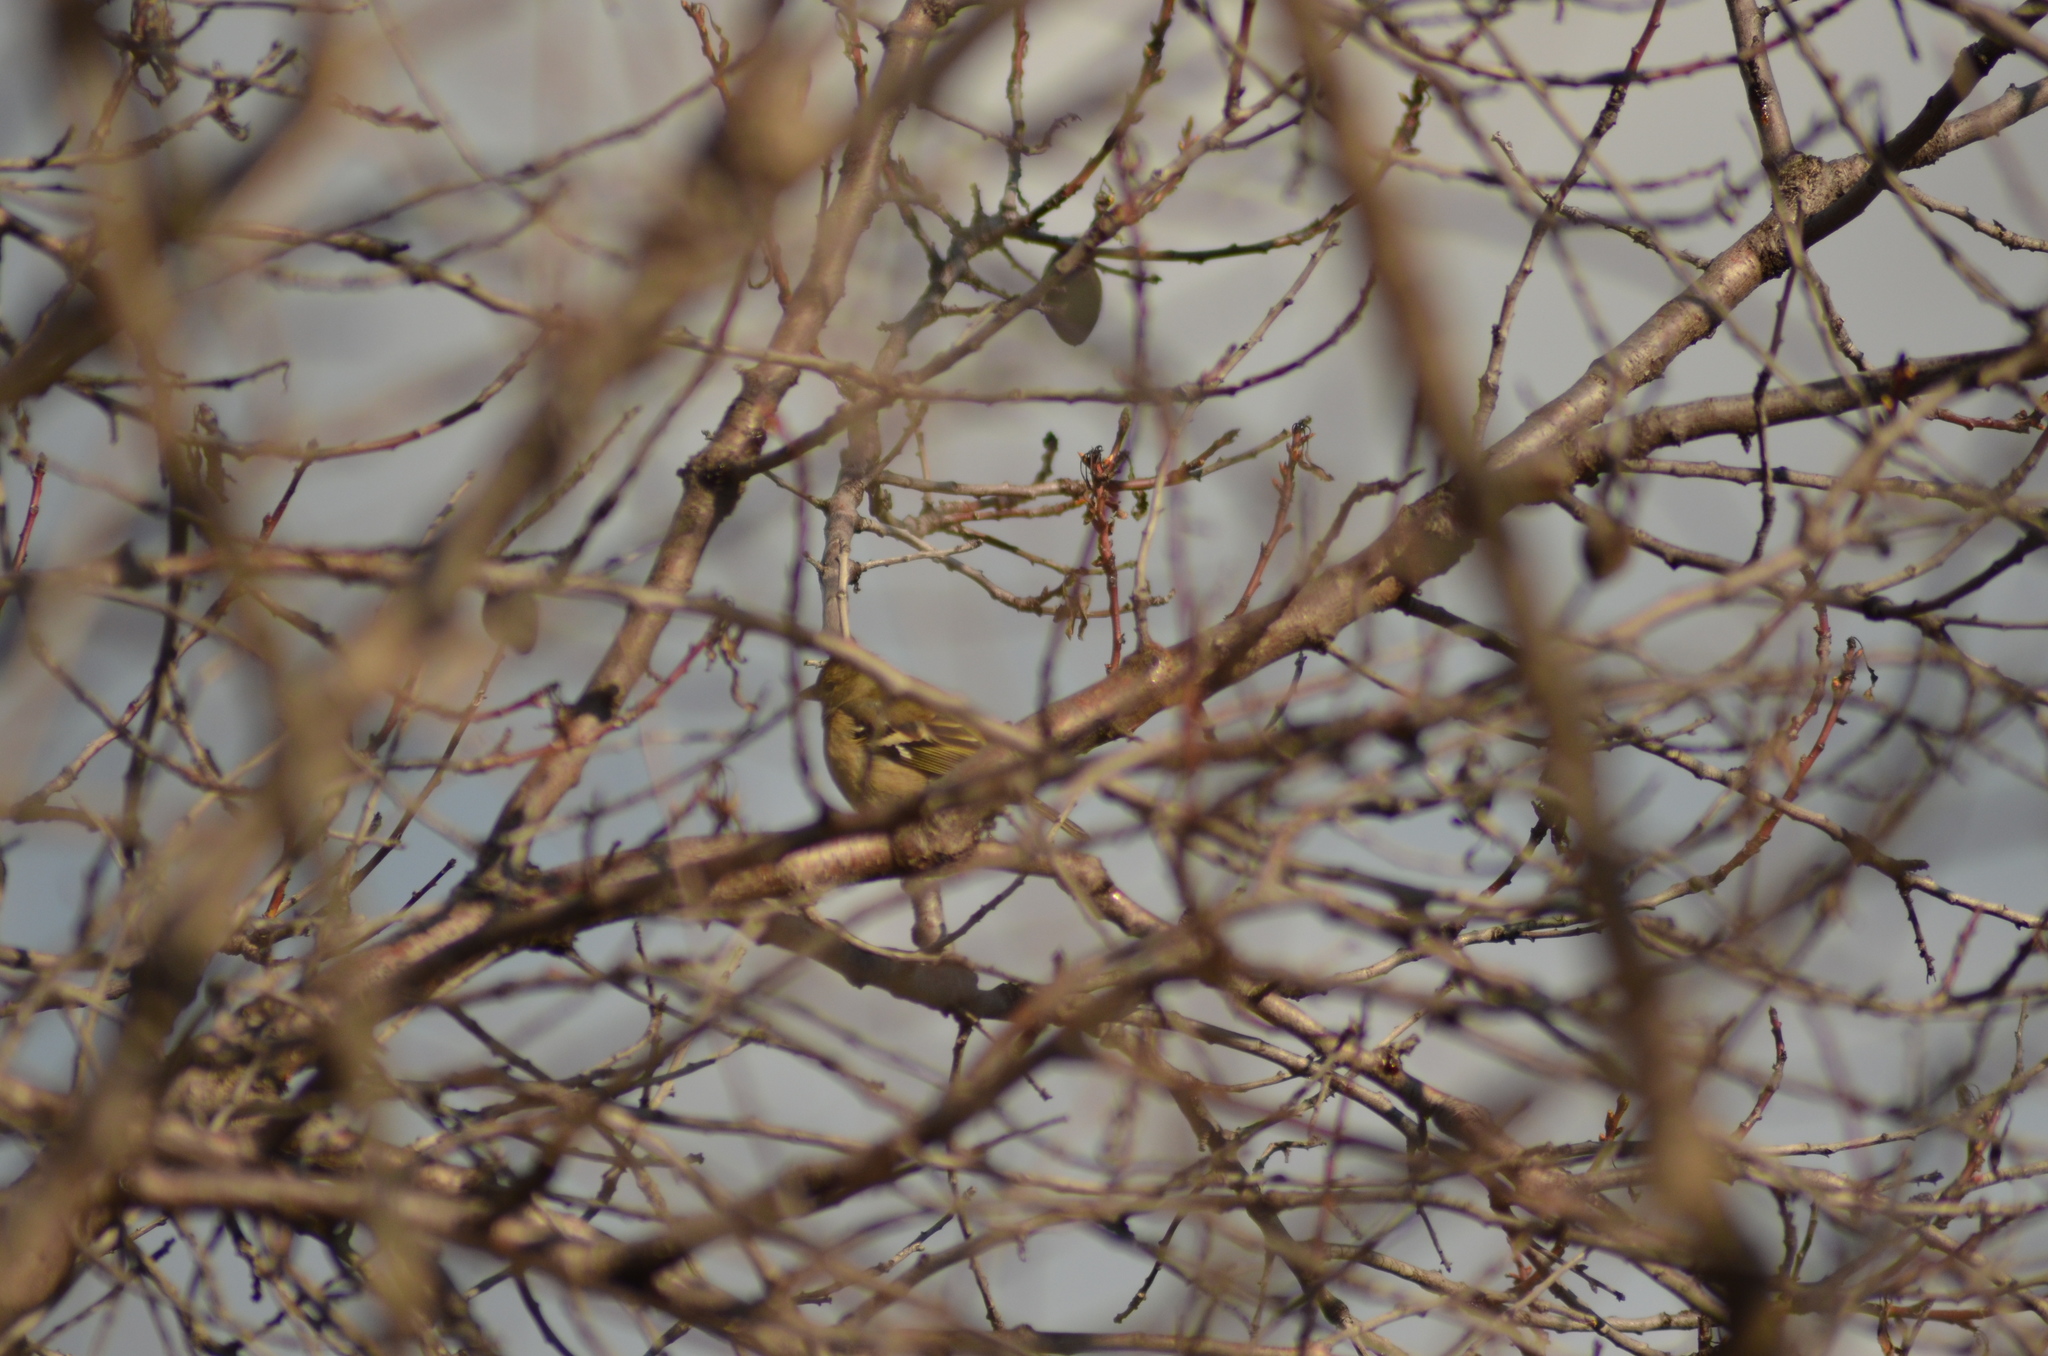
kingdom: Animalia
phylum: Chordata
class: Aves
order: Passeriformes
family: Fringillidae
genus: Fringilla
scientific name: Fringilla coelebs
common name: Common chaffinch
